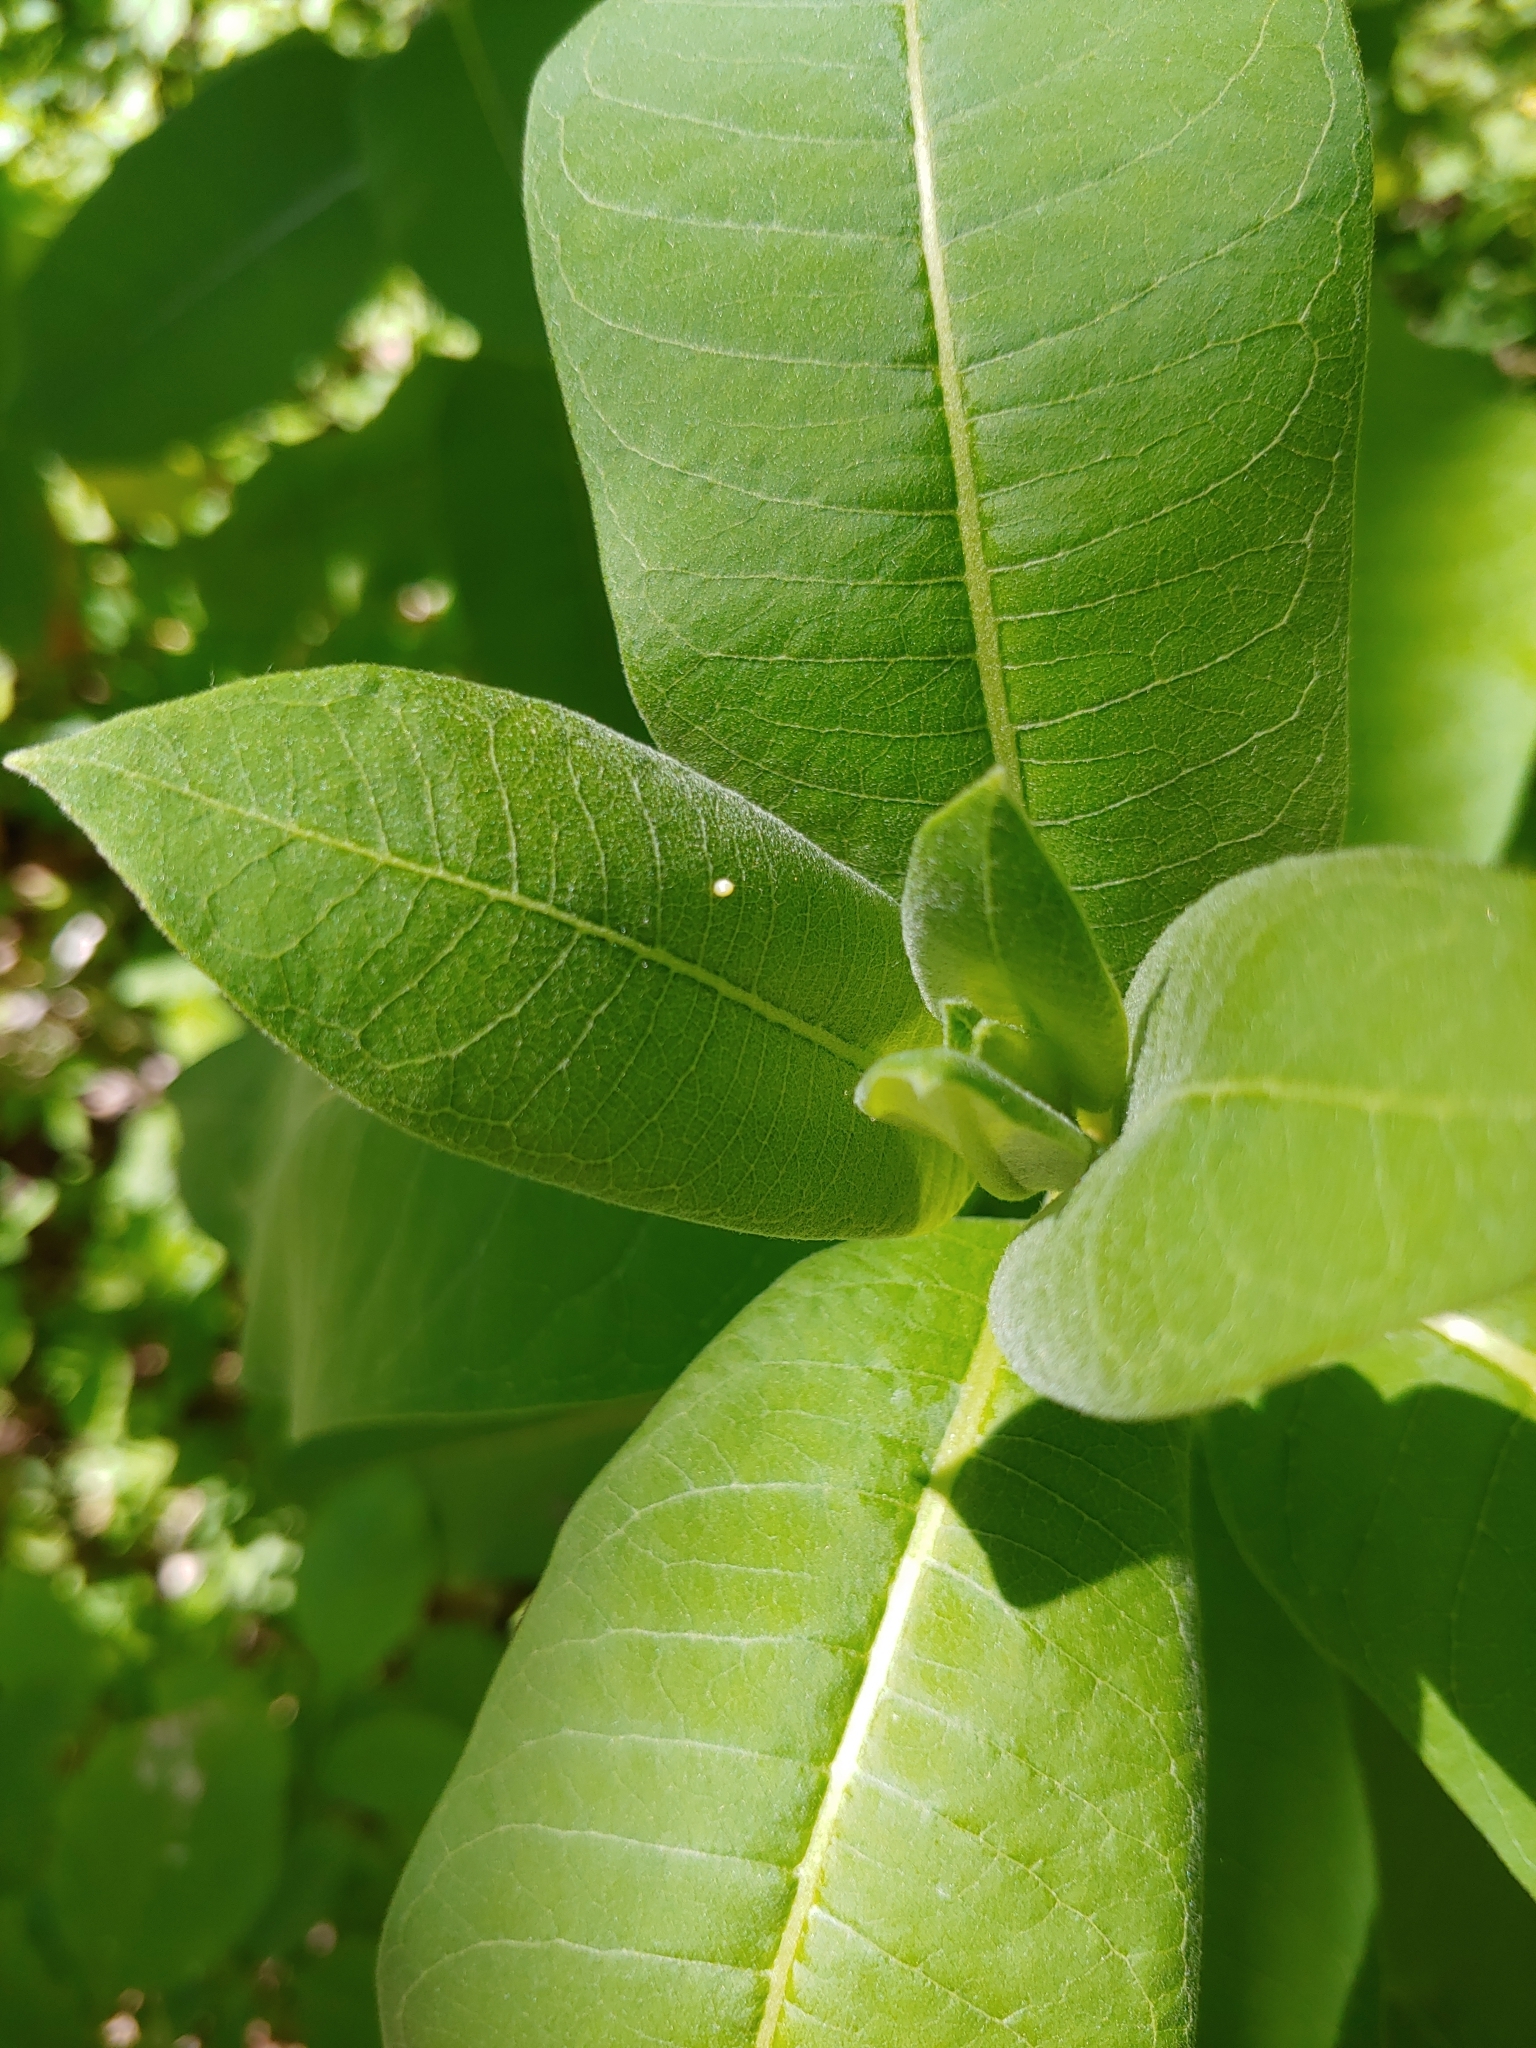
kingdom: Animalia
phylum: Arthropoda
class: Insecta
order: Lepidoptera
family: Nymphalidae
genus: Danaus
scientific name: Danaus plexippus
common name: Monarch
